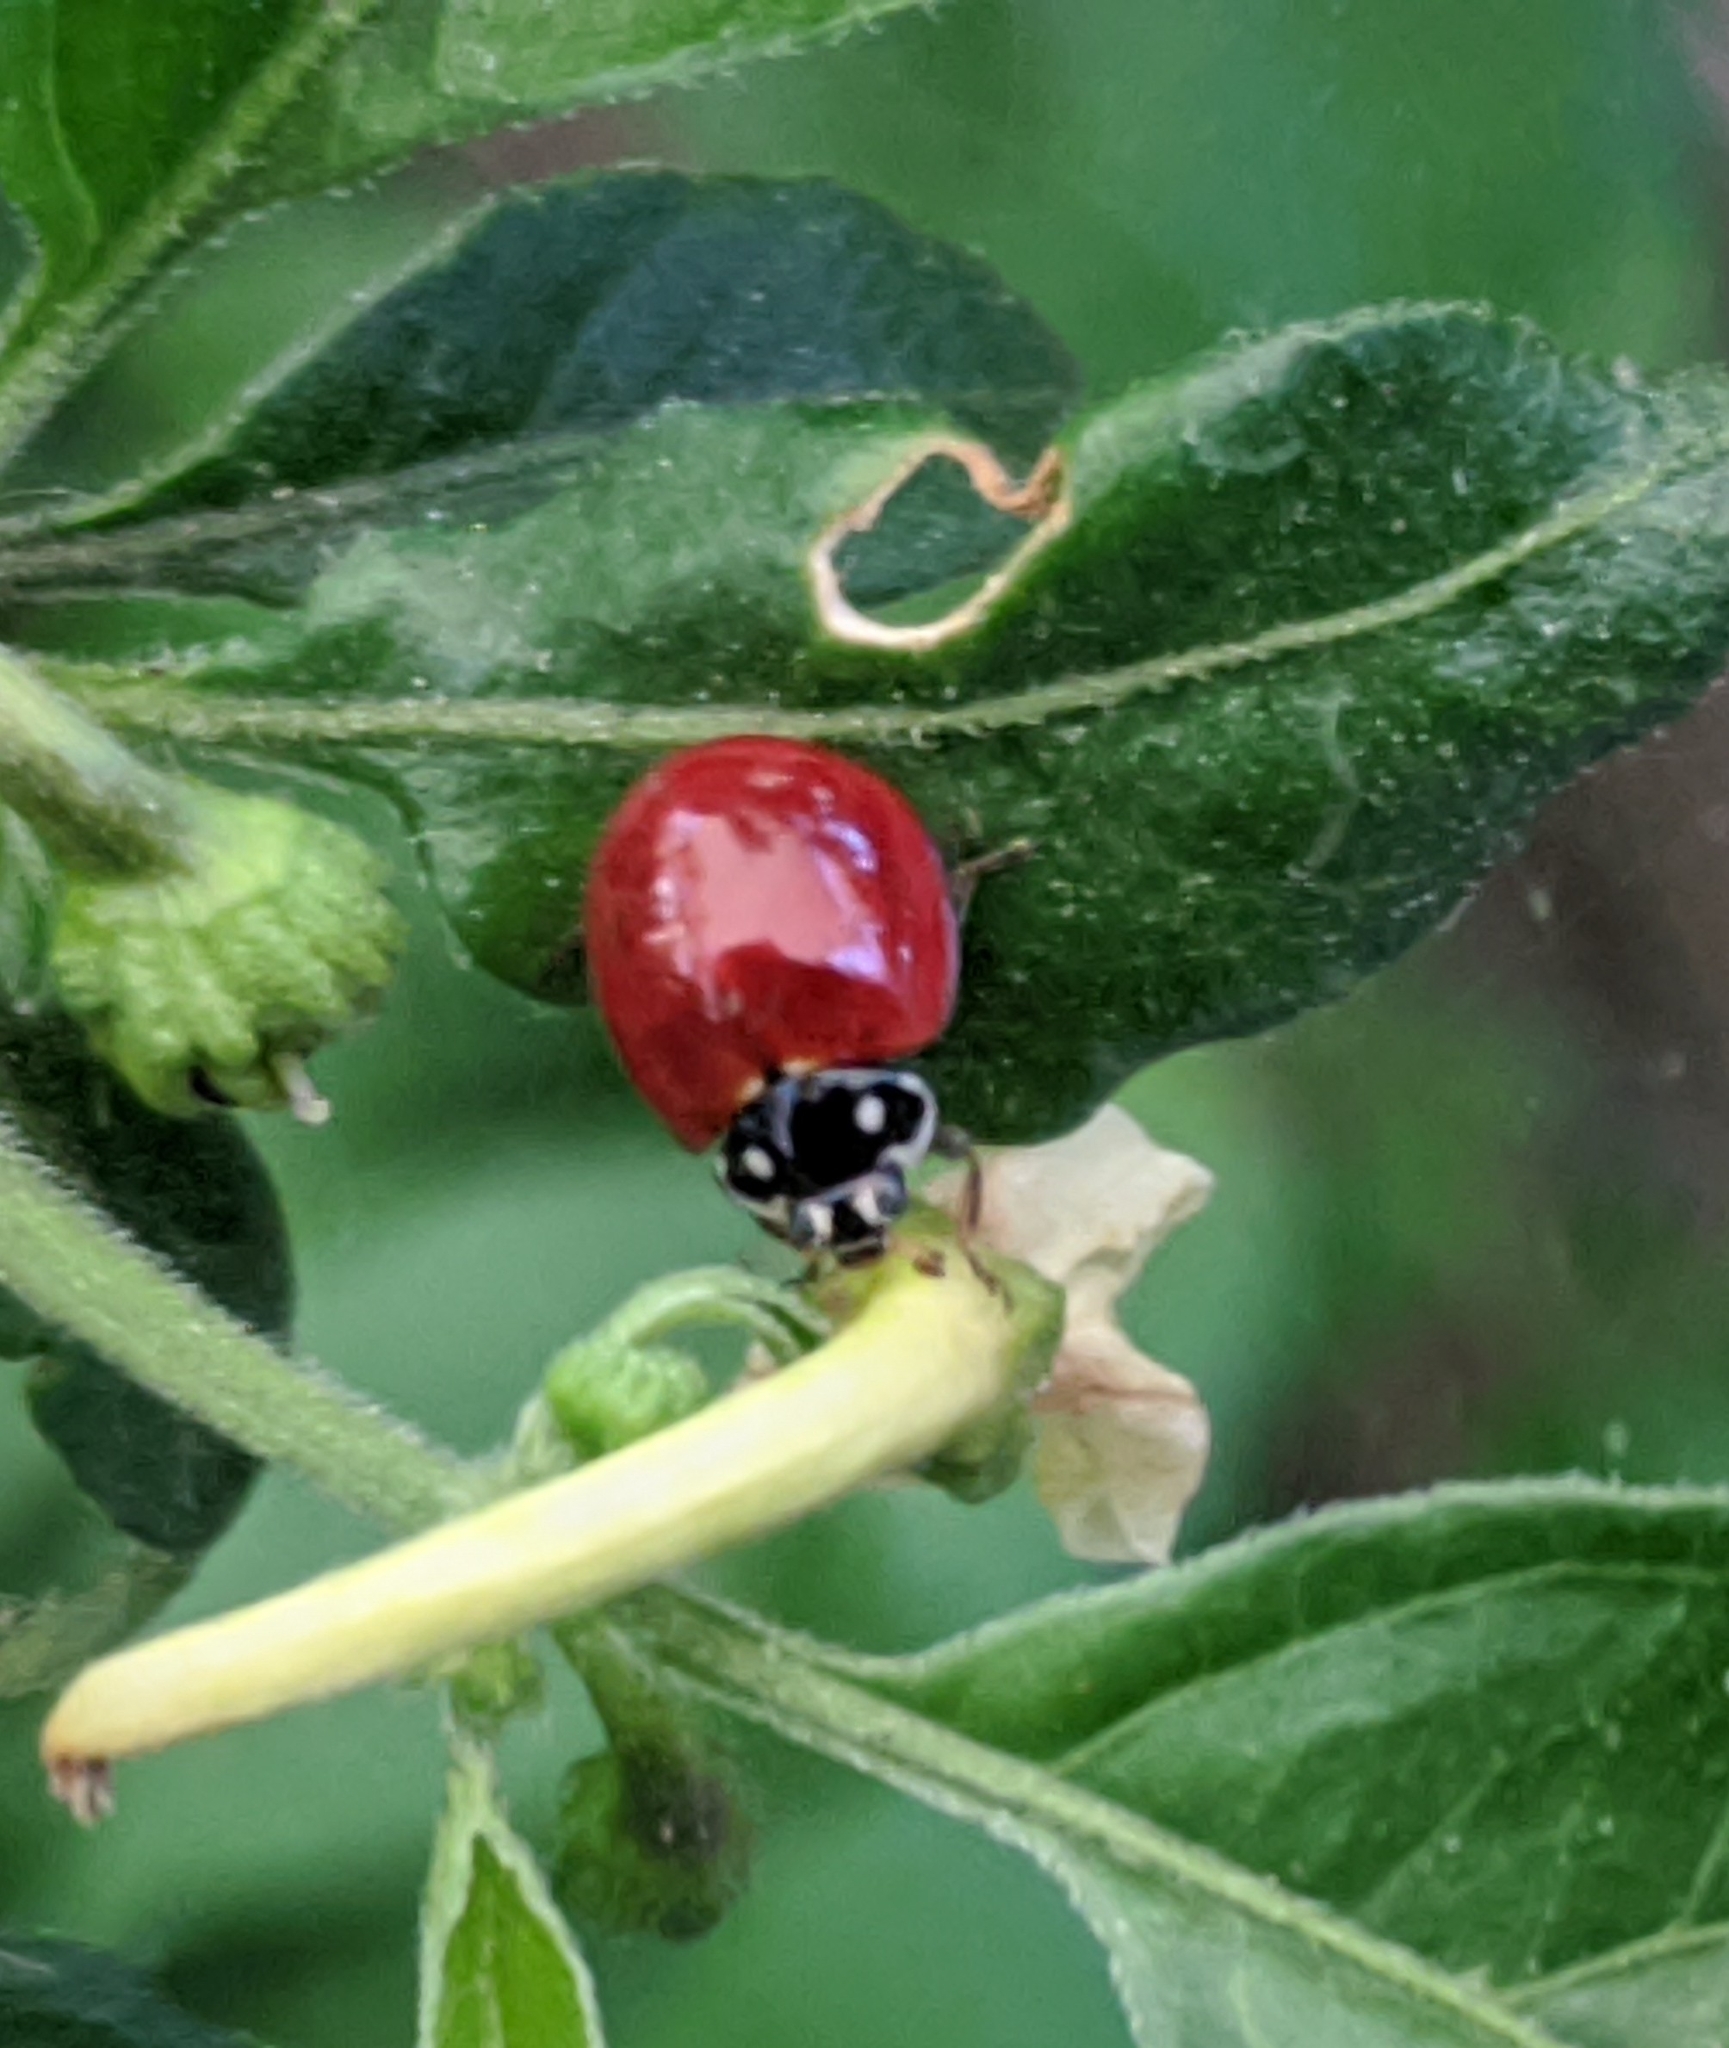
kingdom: Animalia
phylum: Arthropoda
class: Insecta
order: Coleoptera
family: Coccinellidae
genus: Cycloneda
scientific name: Cycloneda sanguinea
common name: Ladybird beetle
